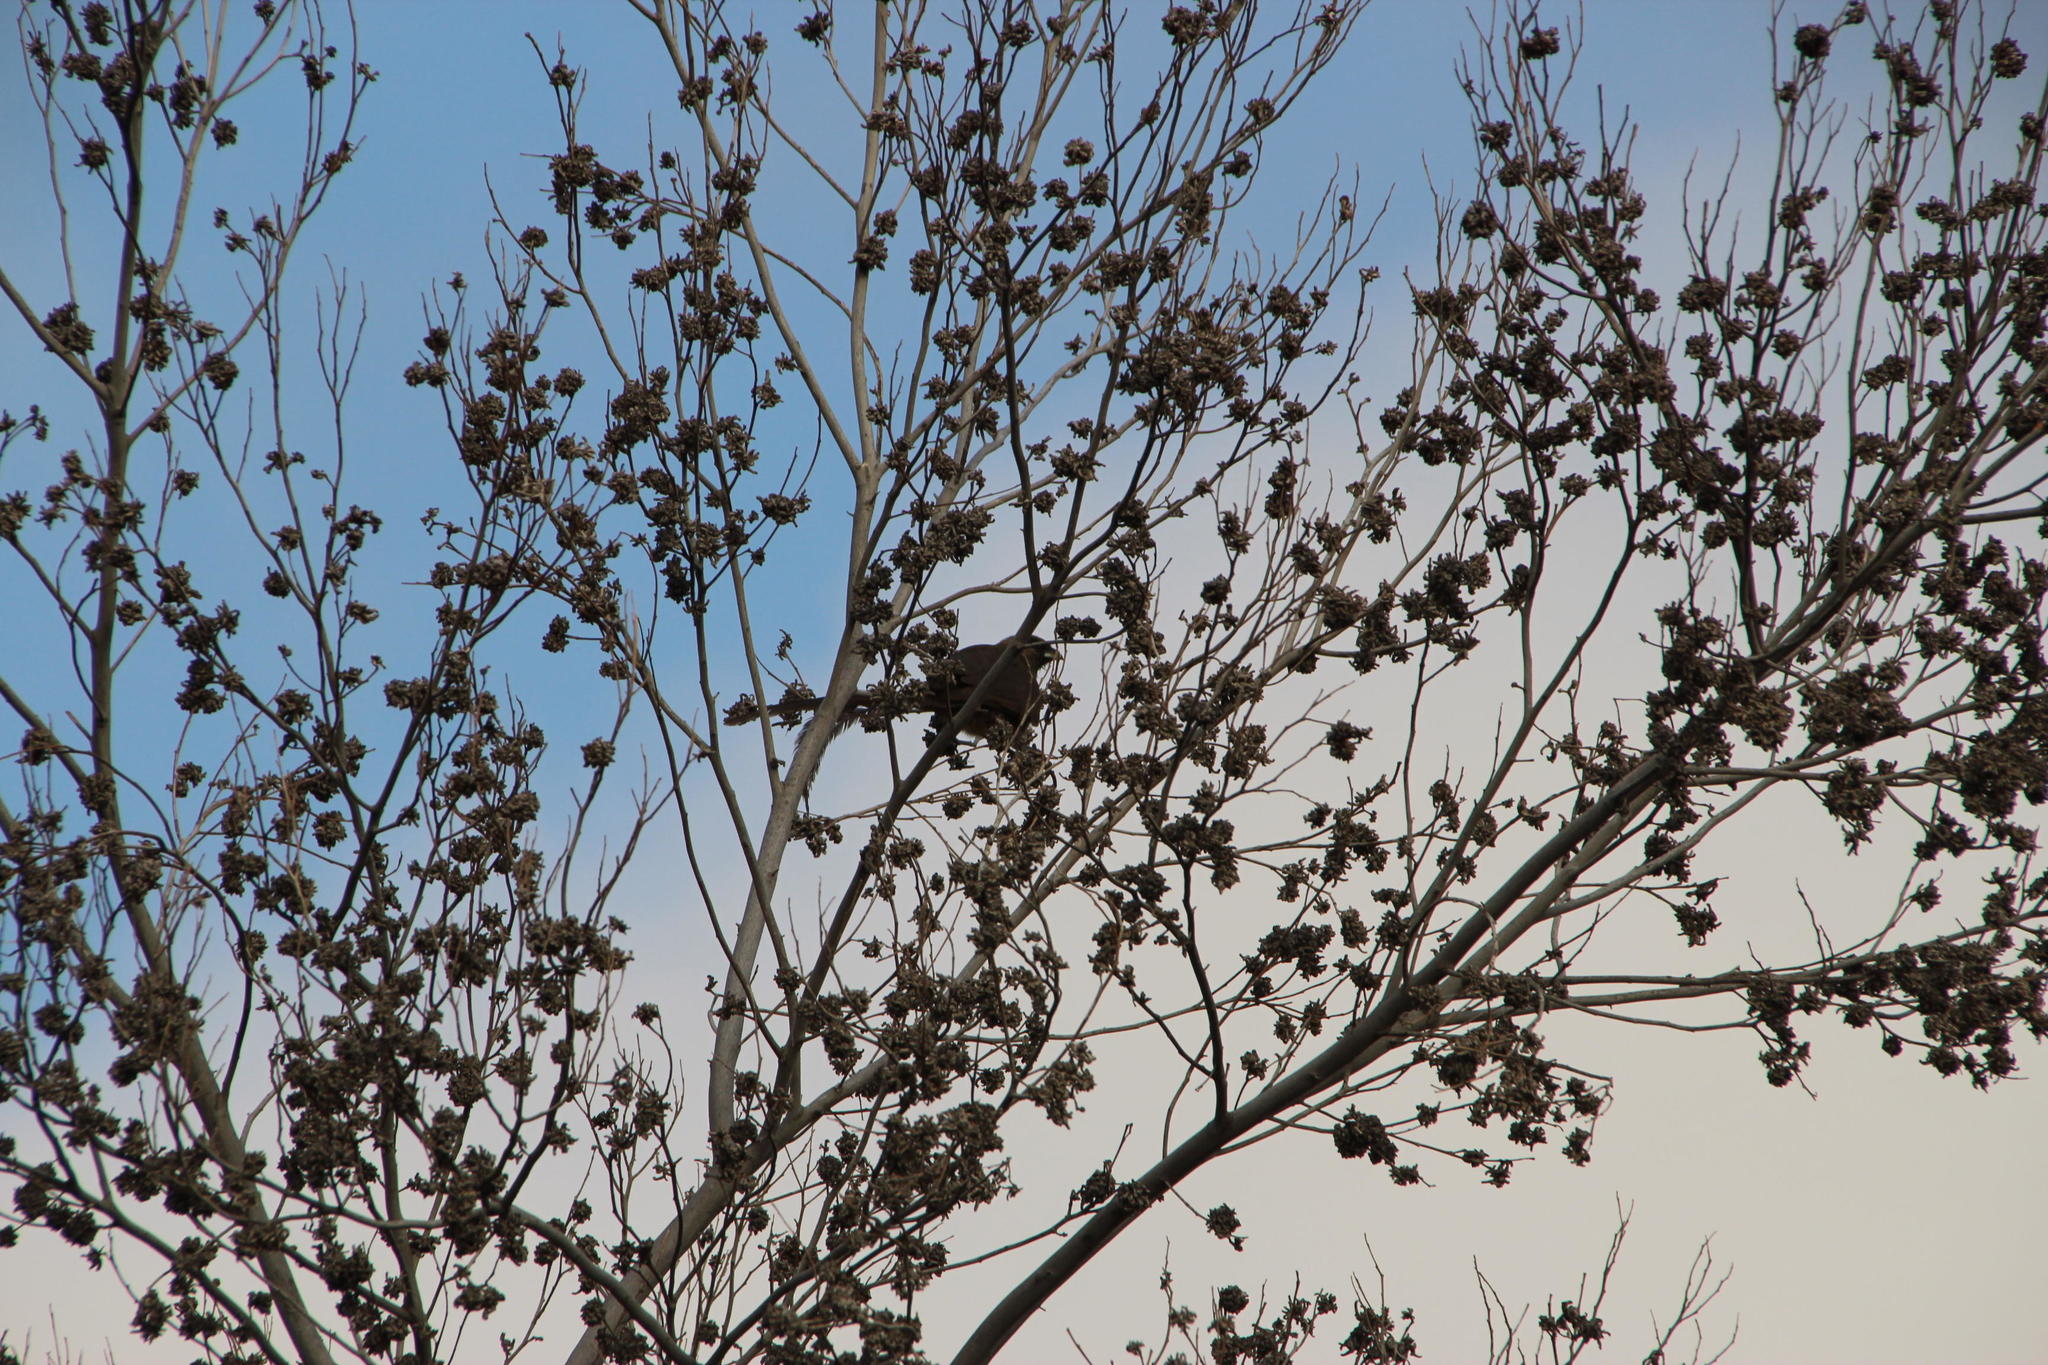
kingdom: Plantae
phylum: Tracheophyta
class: Magnoliopsida
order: Fabales
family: Fabaceae
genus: Acacia
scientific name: Acacia cyclops
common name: Coastal wattle
